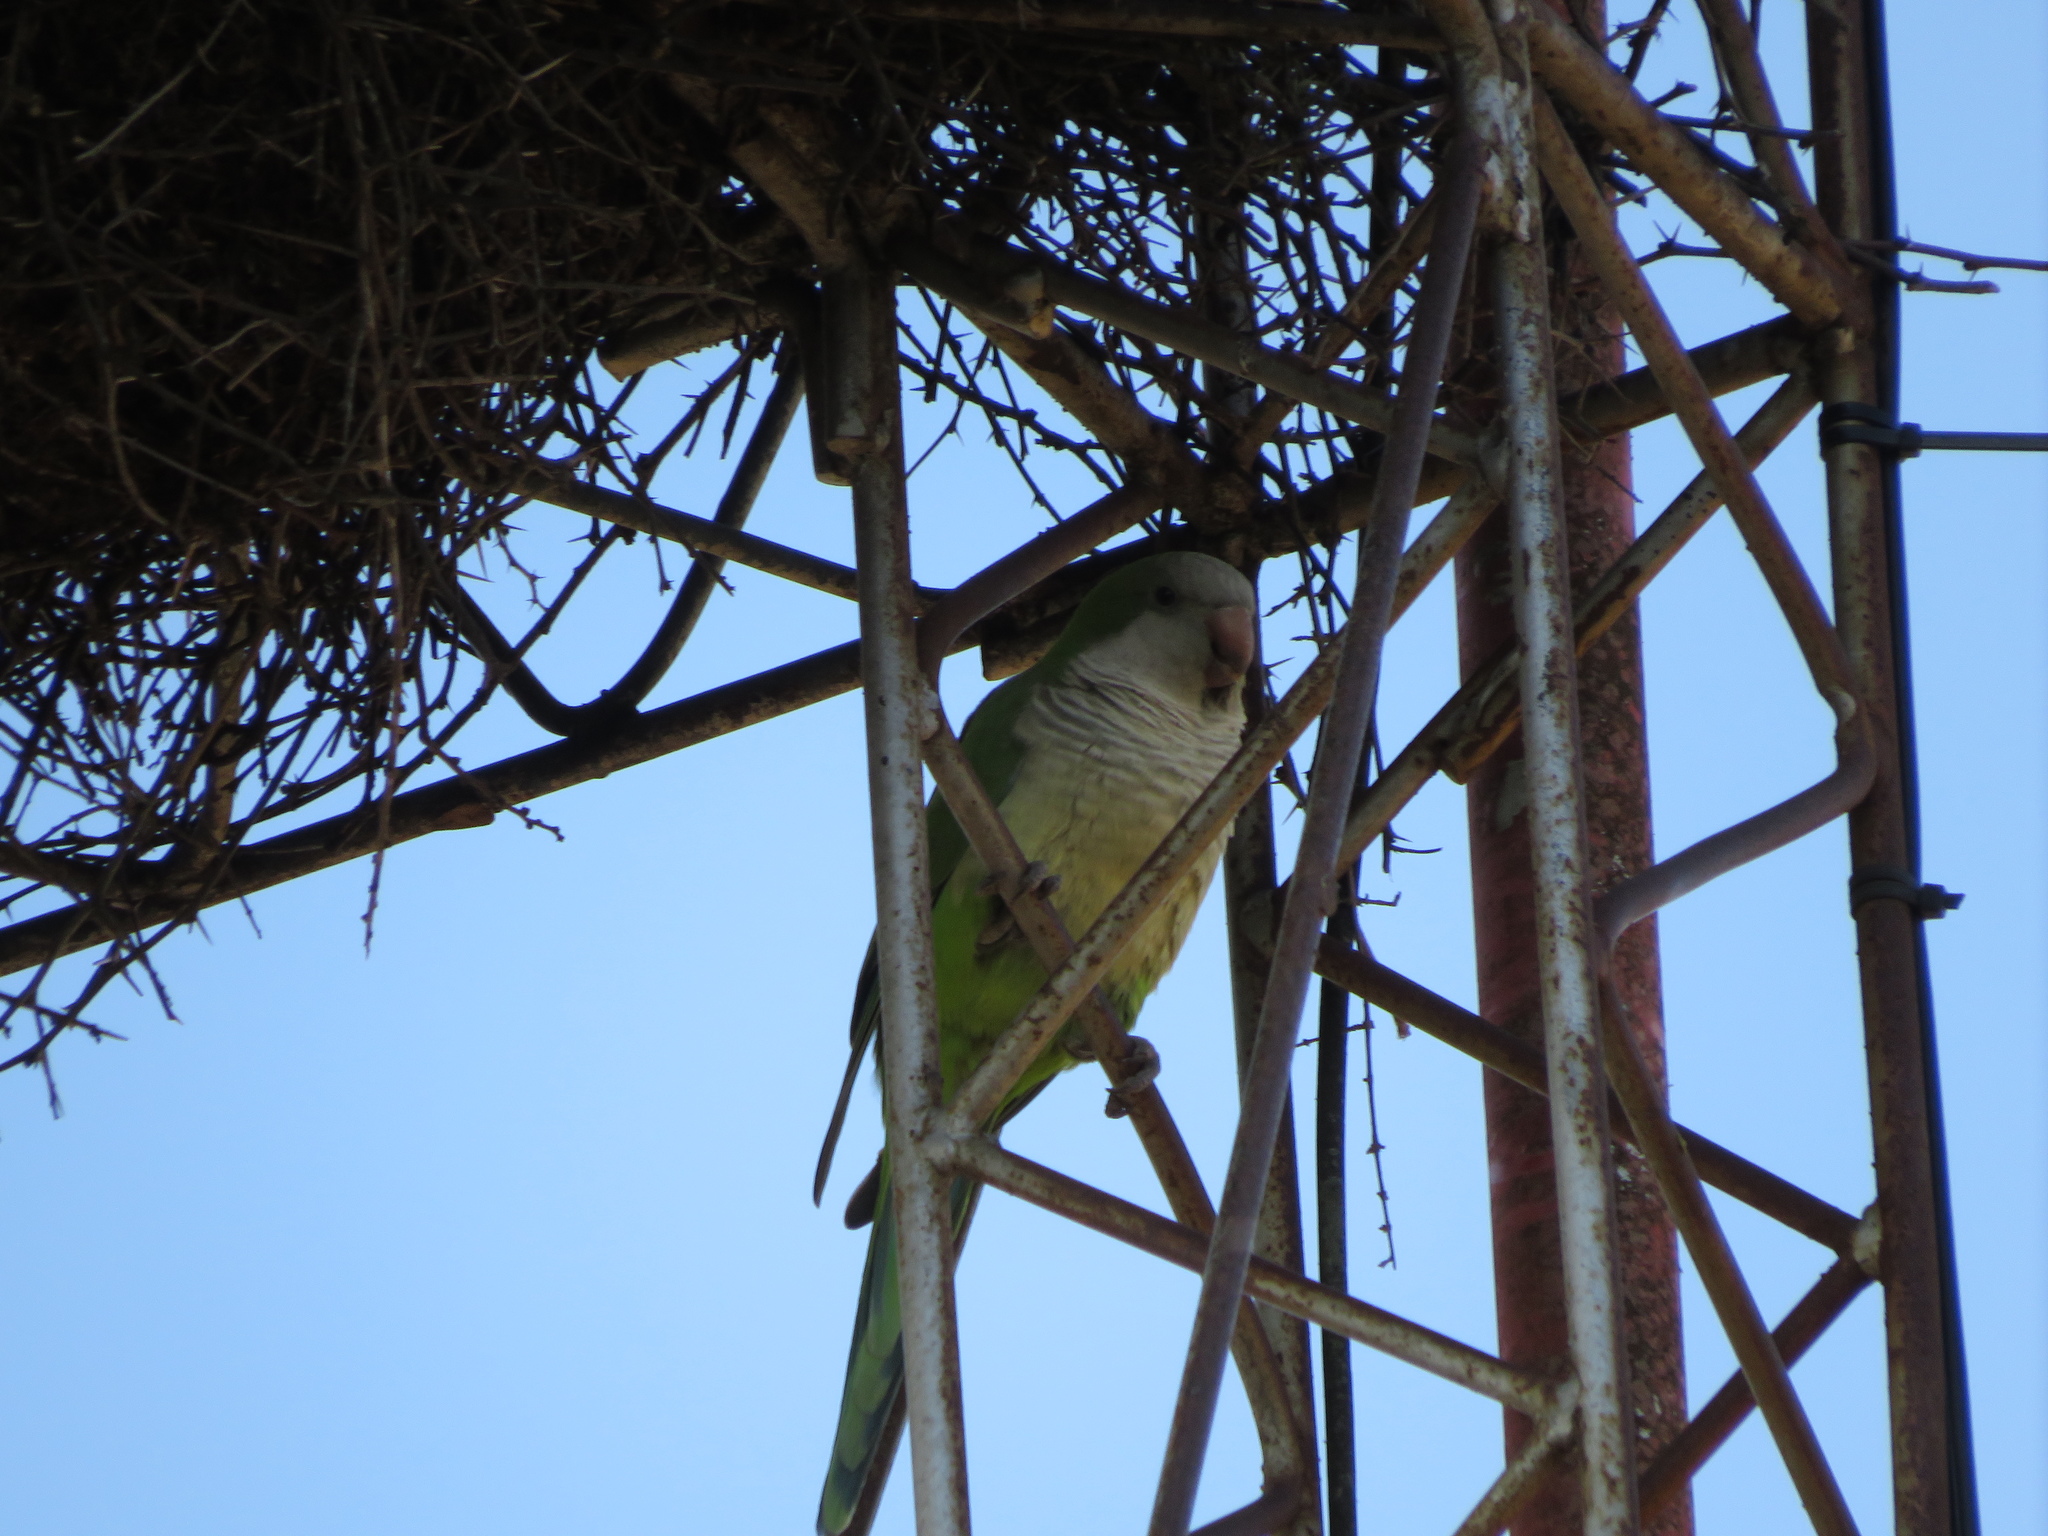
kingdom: Animalia
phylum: Chordata
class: Aves
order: Psittaciformes
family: Psittacidae
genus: Myiopsitta
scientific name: Myiopsitta monachus
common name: Monk parakeet
